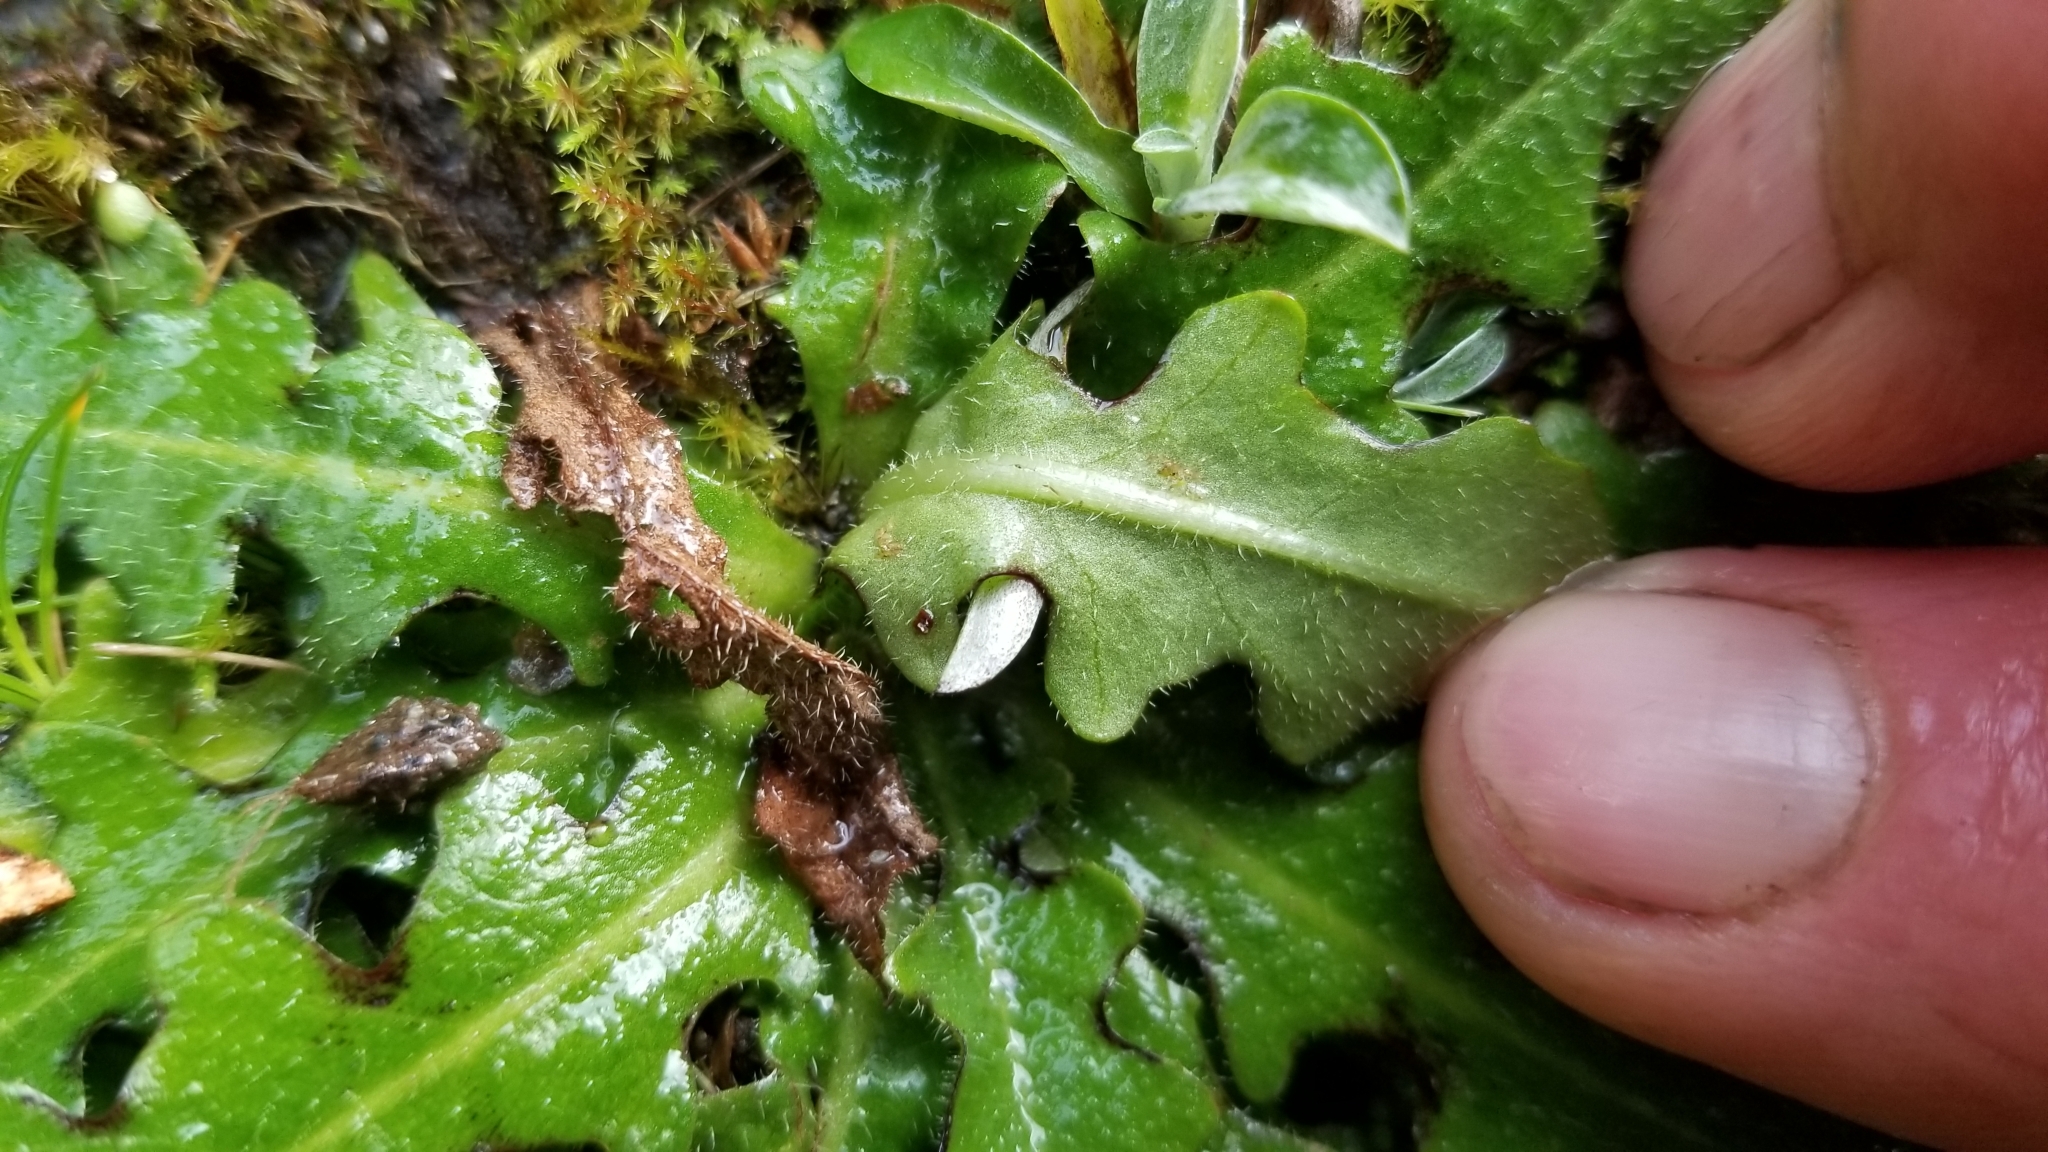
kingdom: Plantae
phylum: Tracheophyta
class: Magnoliopsida
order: Asterales
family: Asteraceae
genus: Hypochaeris
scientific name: Hypochaeris radicata
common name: Flatweed
